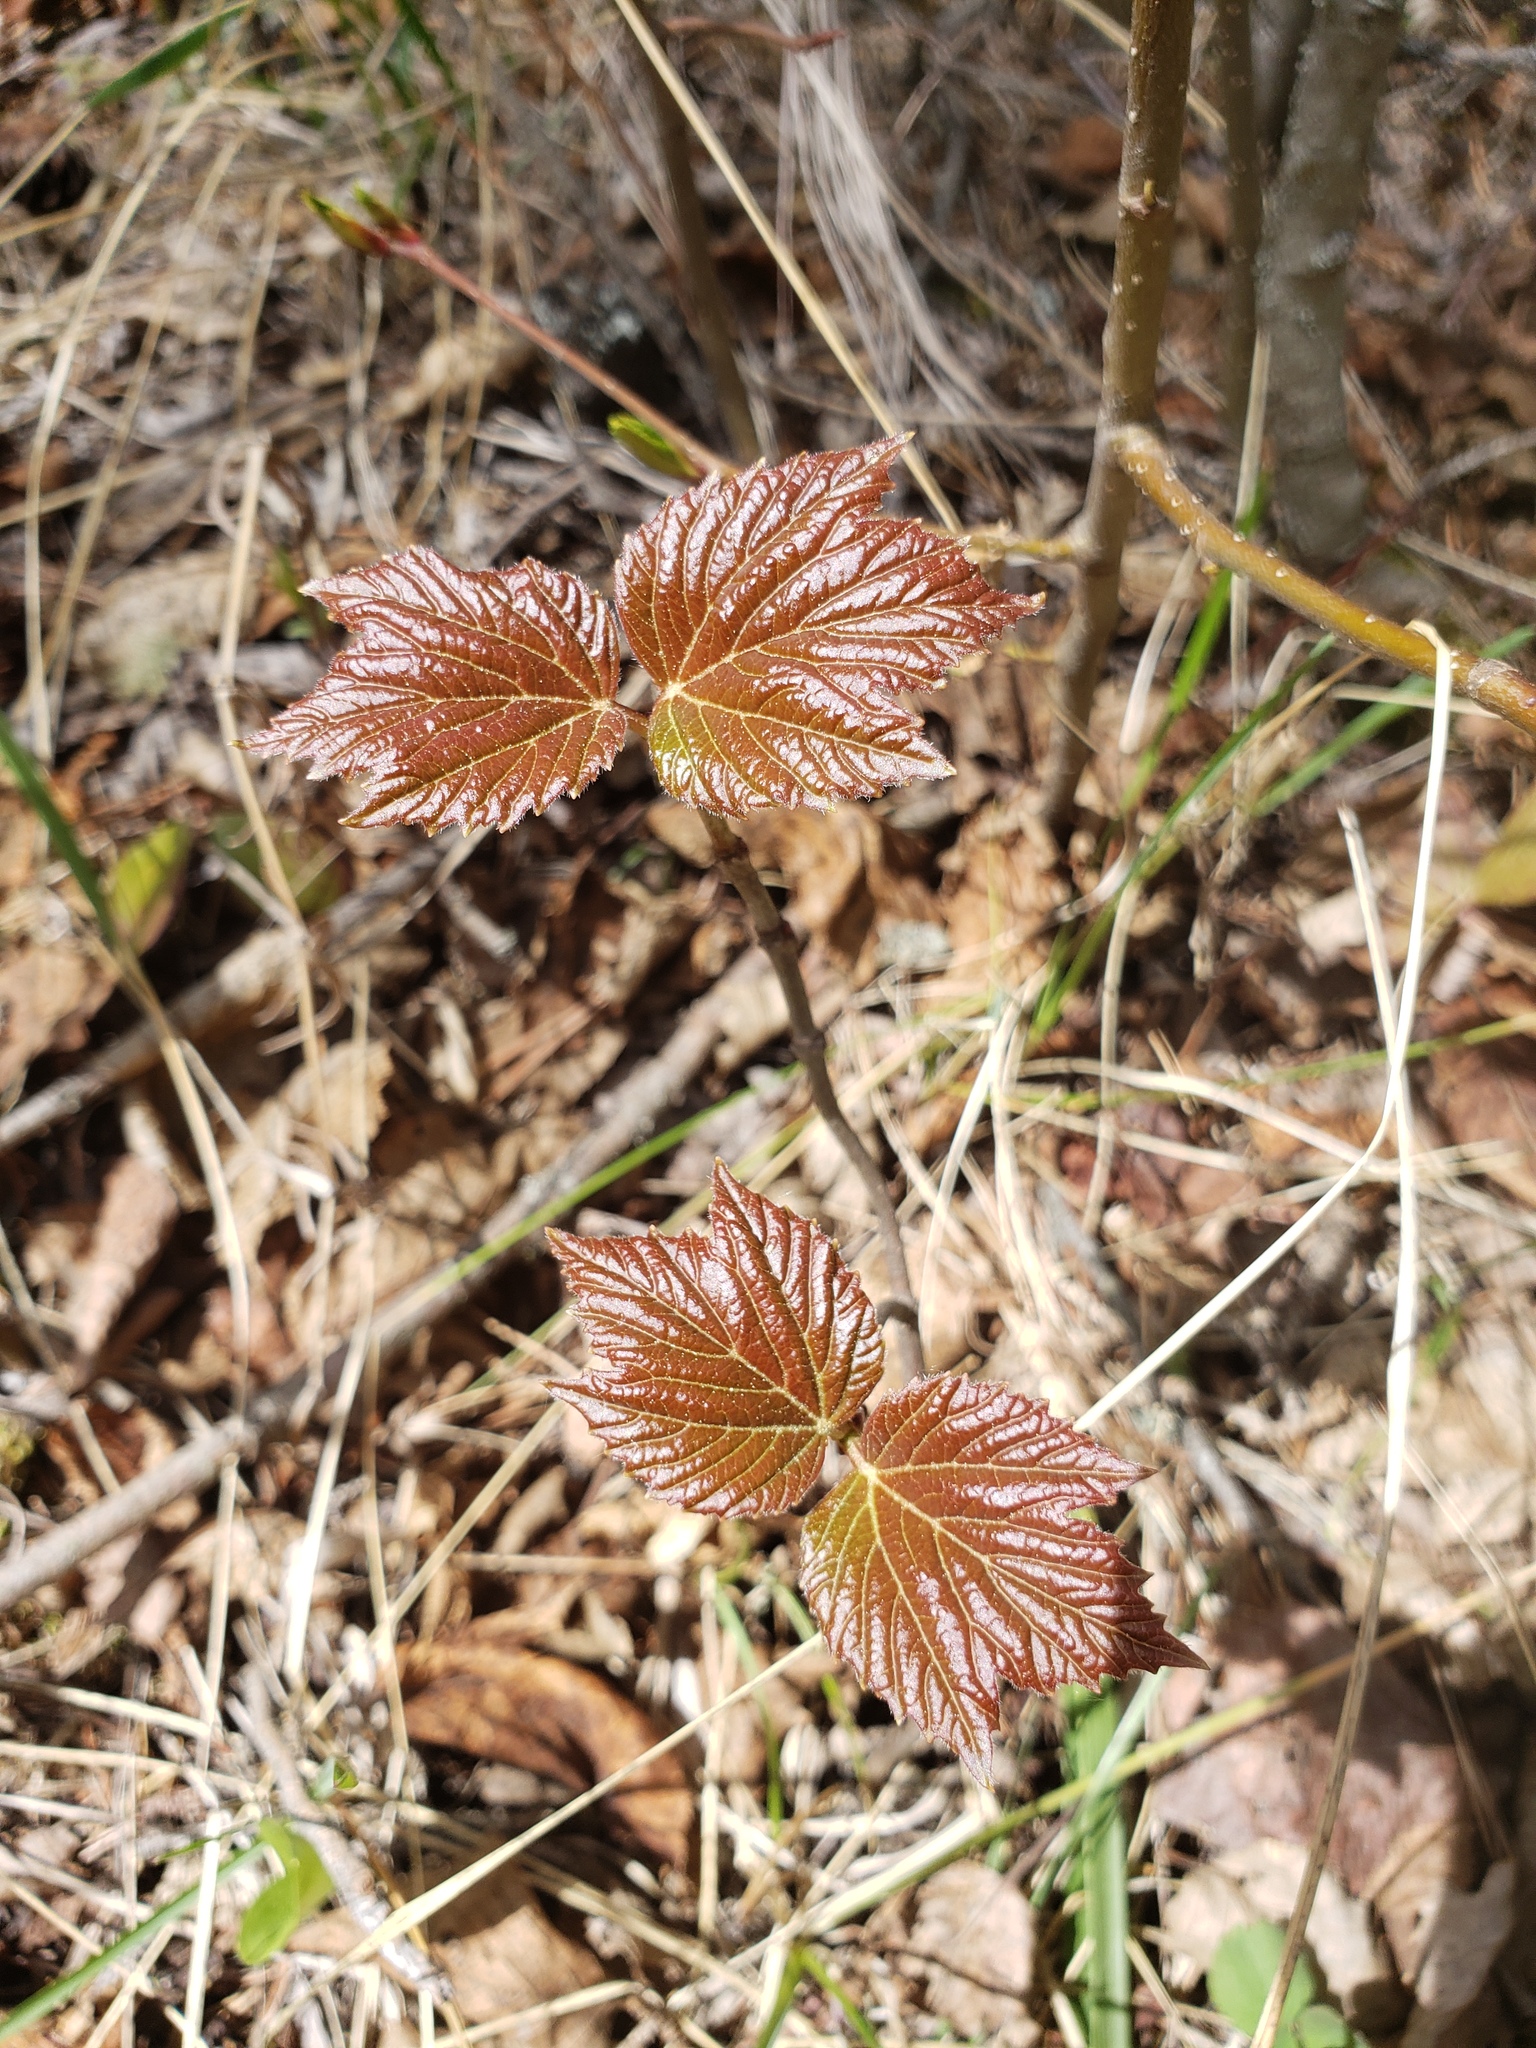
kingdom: Plantae
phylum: Tracheophyta
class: Magnoliopsida
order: Dipsacales
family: Viburnaceae
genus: Viburnum
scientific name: Viburnum edule
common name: Mooseberry
